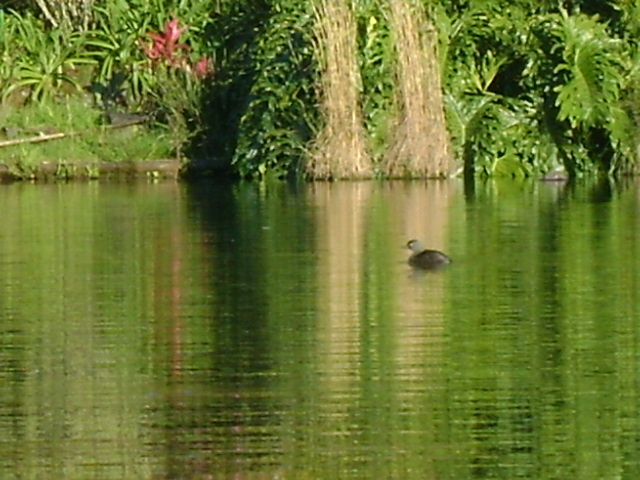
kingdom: Animalia
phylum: Chordata
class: Aves
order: Podicipediformes
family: Podicipedidae
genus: Tachybaptus
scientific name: Tachybaptus dominicus
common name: Least grebe
